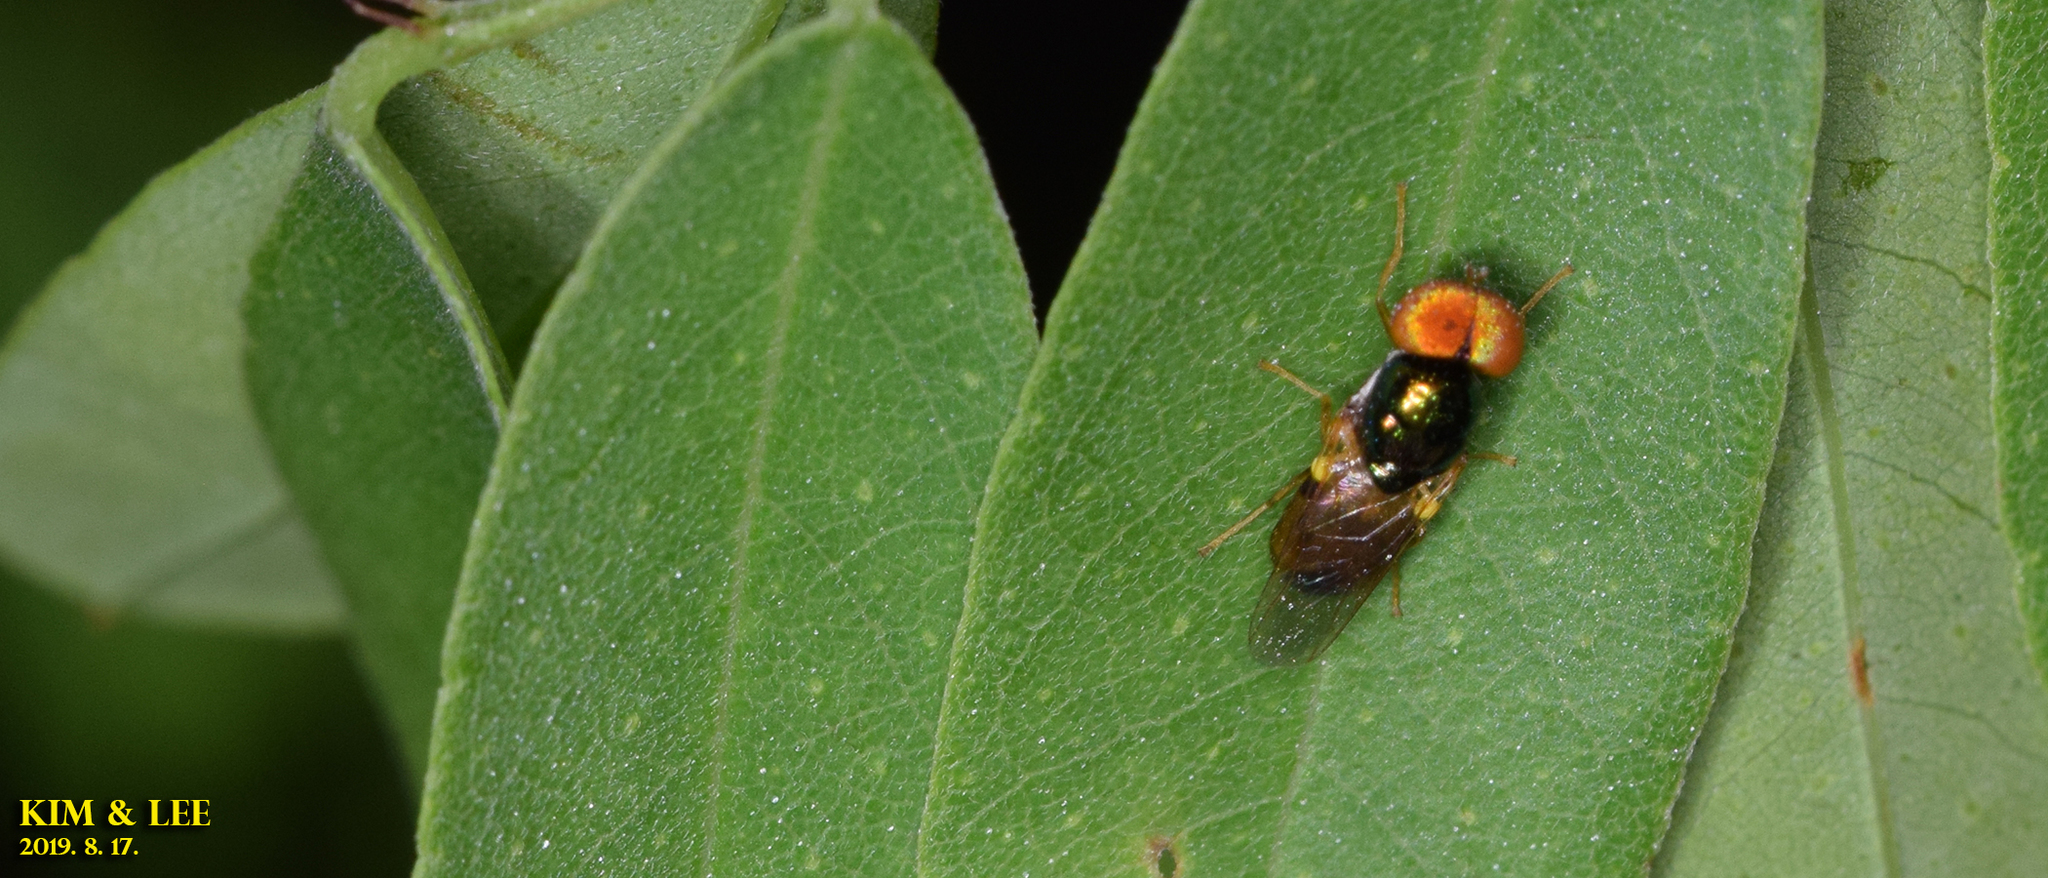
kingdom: Animalia
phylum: Arthropoda
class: Insecta
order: Diptera
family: Stratiomyidae
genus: Microchrysa
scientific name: Microchrysa flaviventris
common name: Soldier fly
